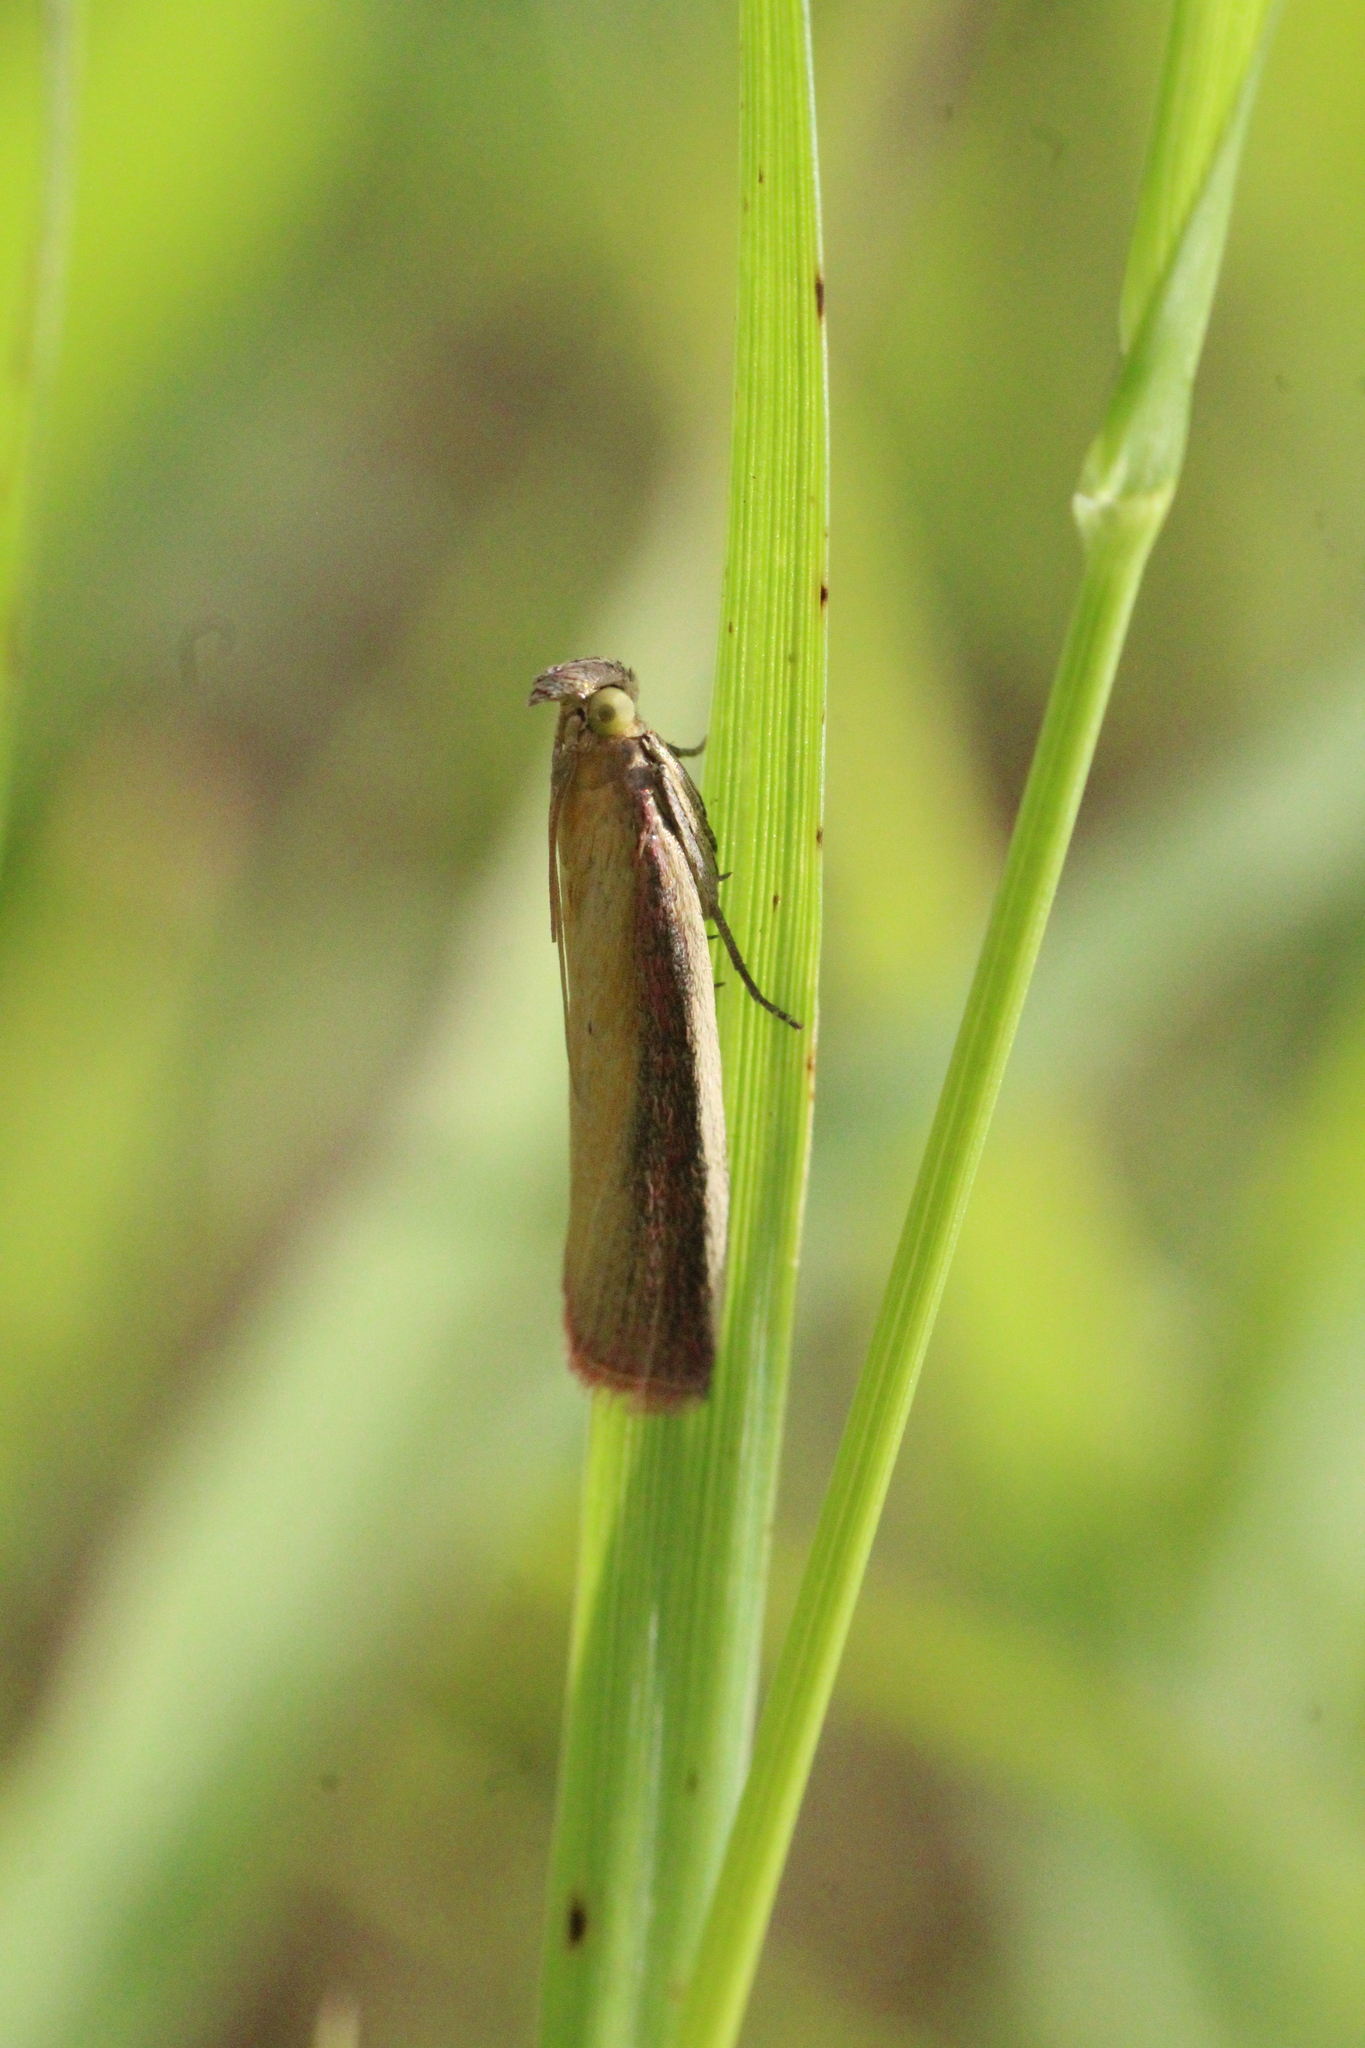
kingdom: Animalia
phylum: Arthropoda
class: Insecta
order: Lepidoptera
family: Pyralidae
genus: Oncocera
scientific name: Oncocera semirubella
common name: Rosy-striped knot-horn
